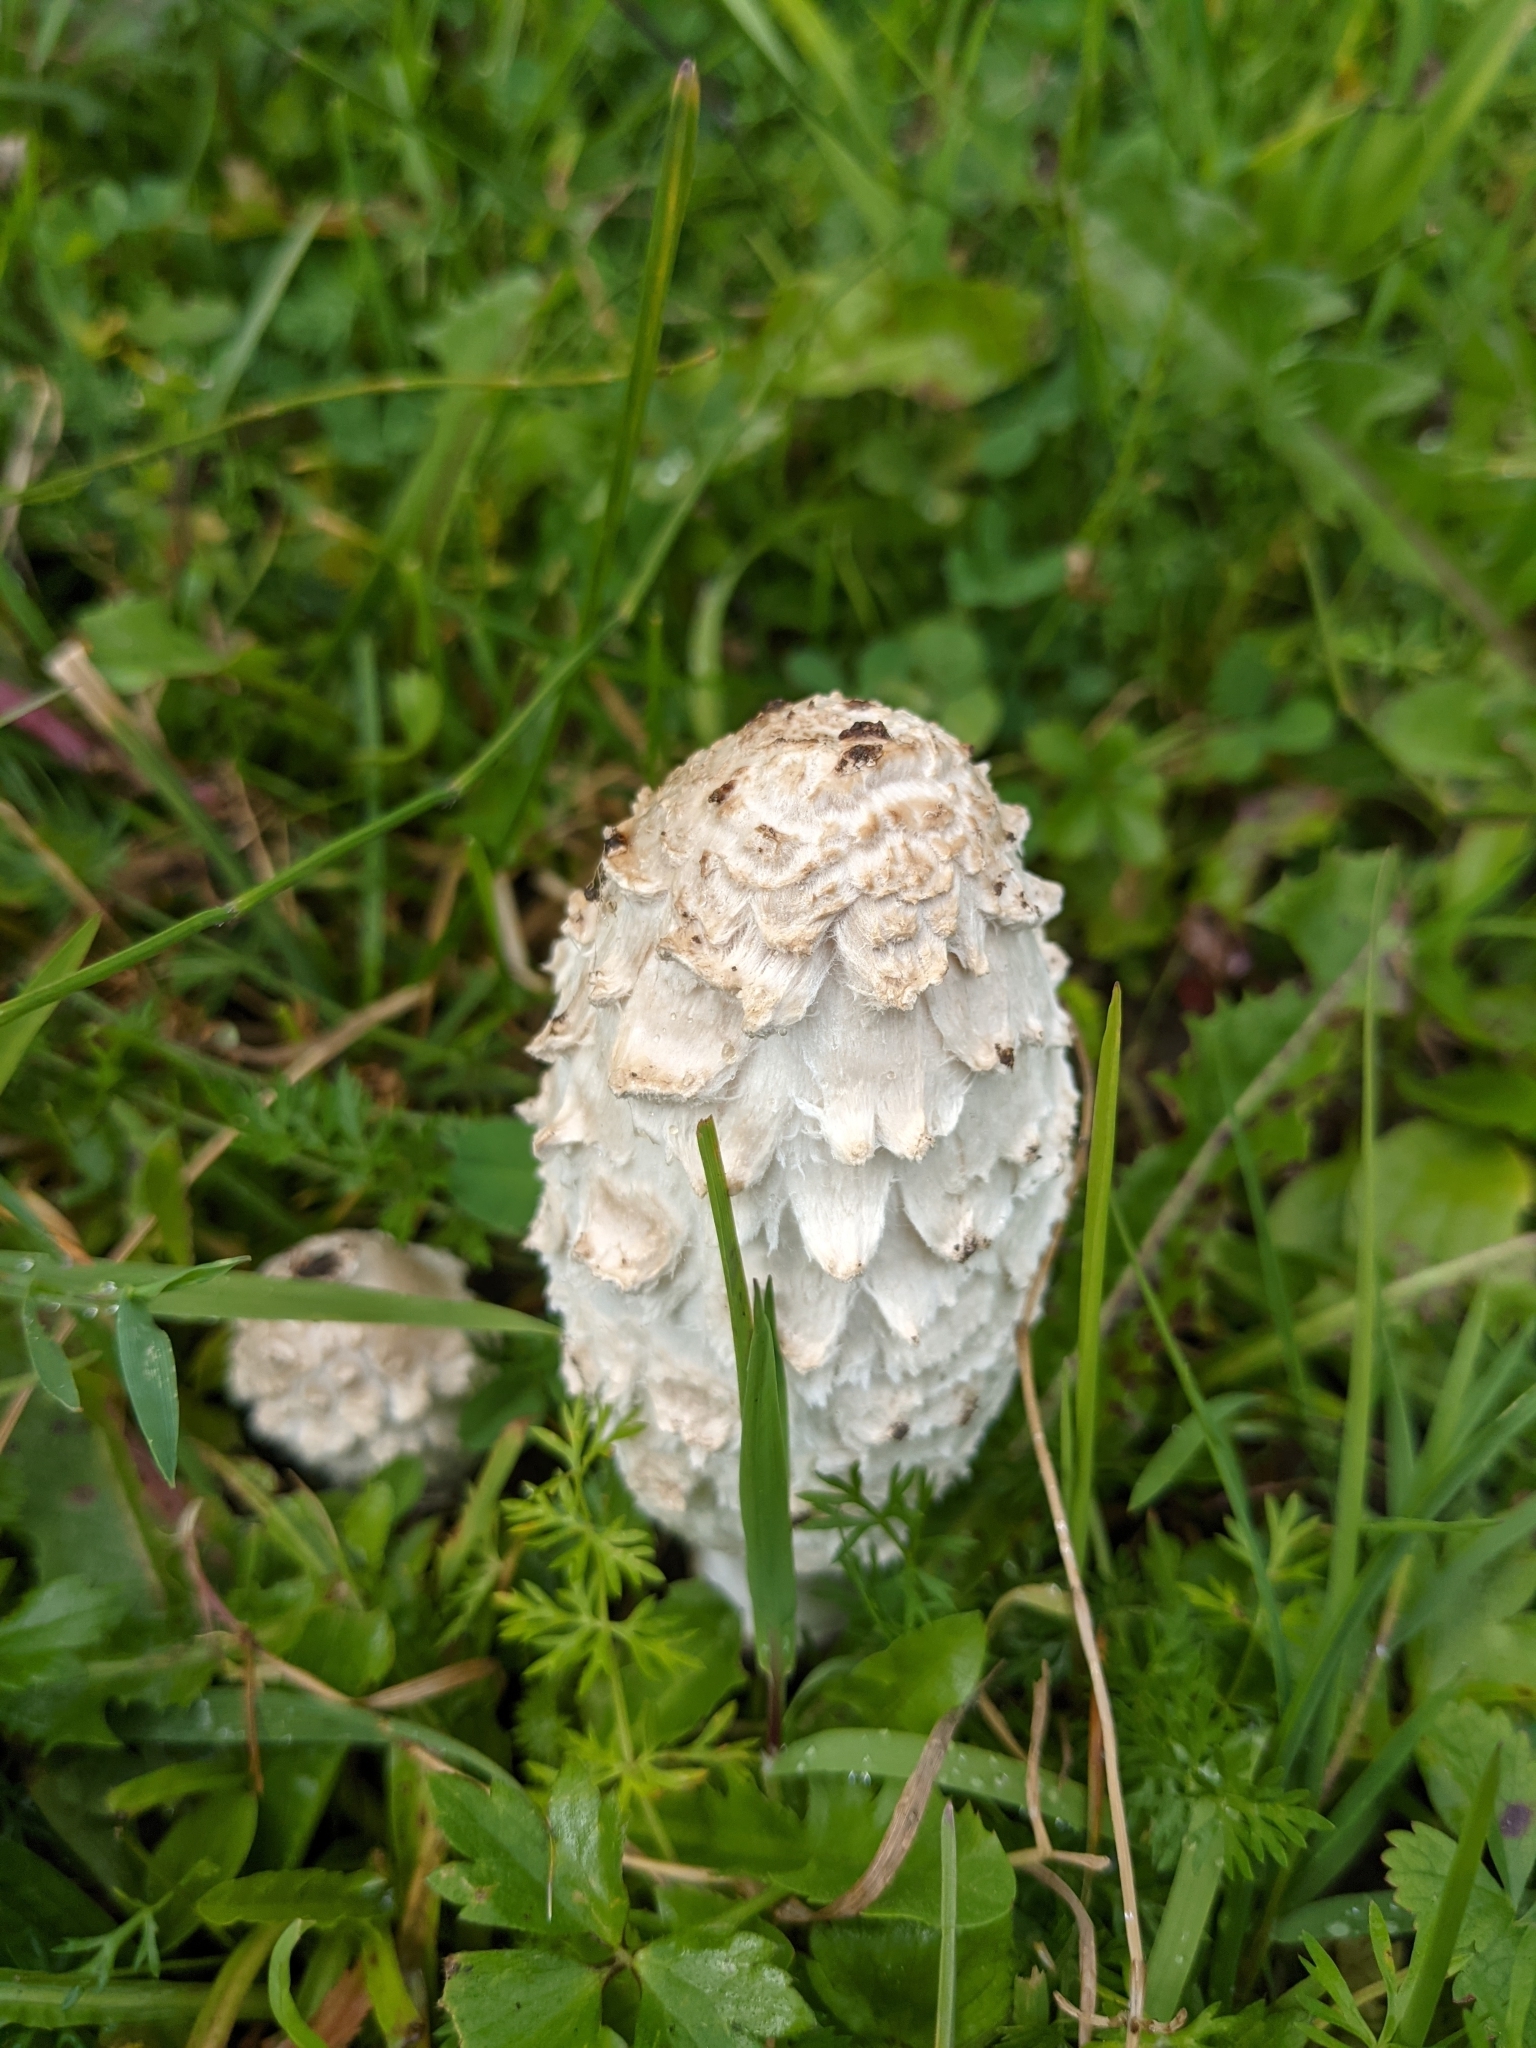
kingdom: Fungi
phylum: Basidiomycota
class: Agaricomycetes
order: Agaricales
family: Agaricaceae
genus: Coprinus
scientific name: Coprinus comatus
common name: Lawyer's wig
